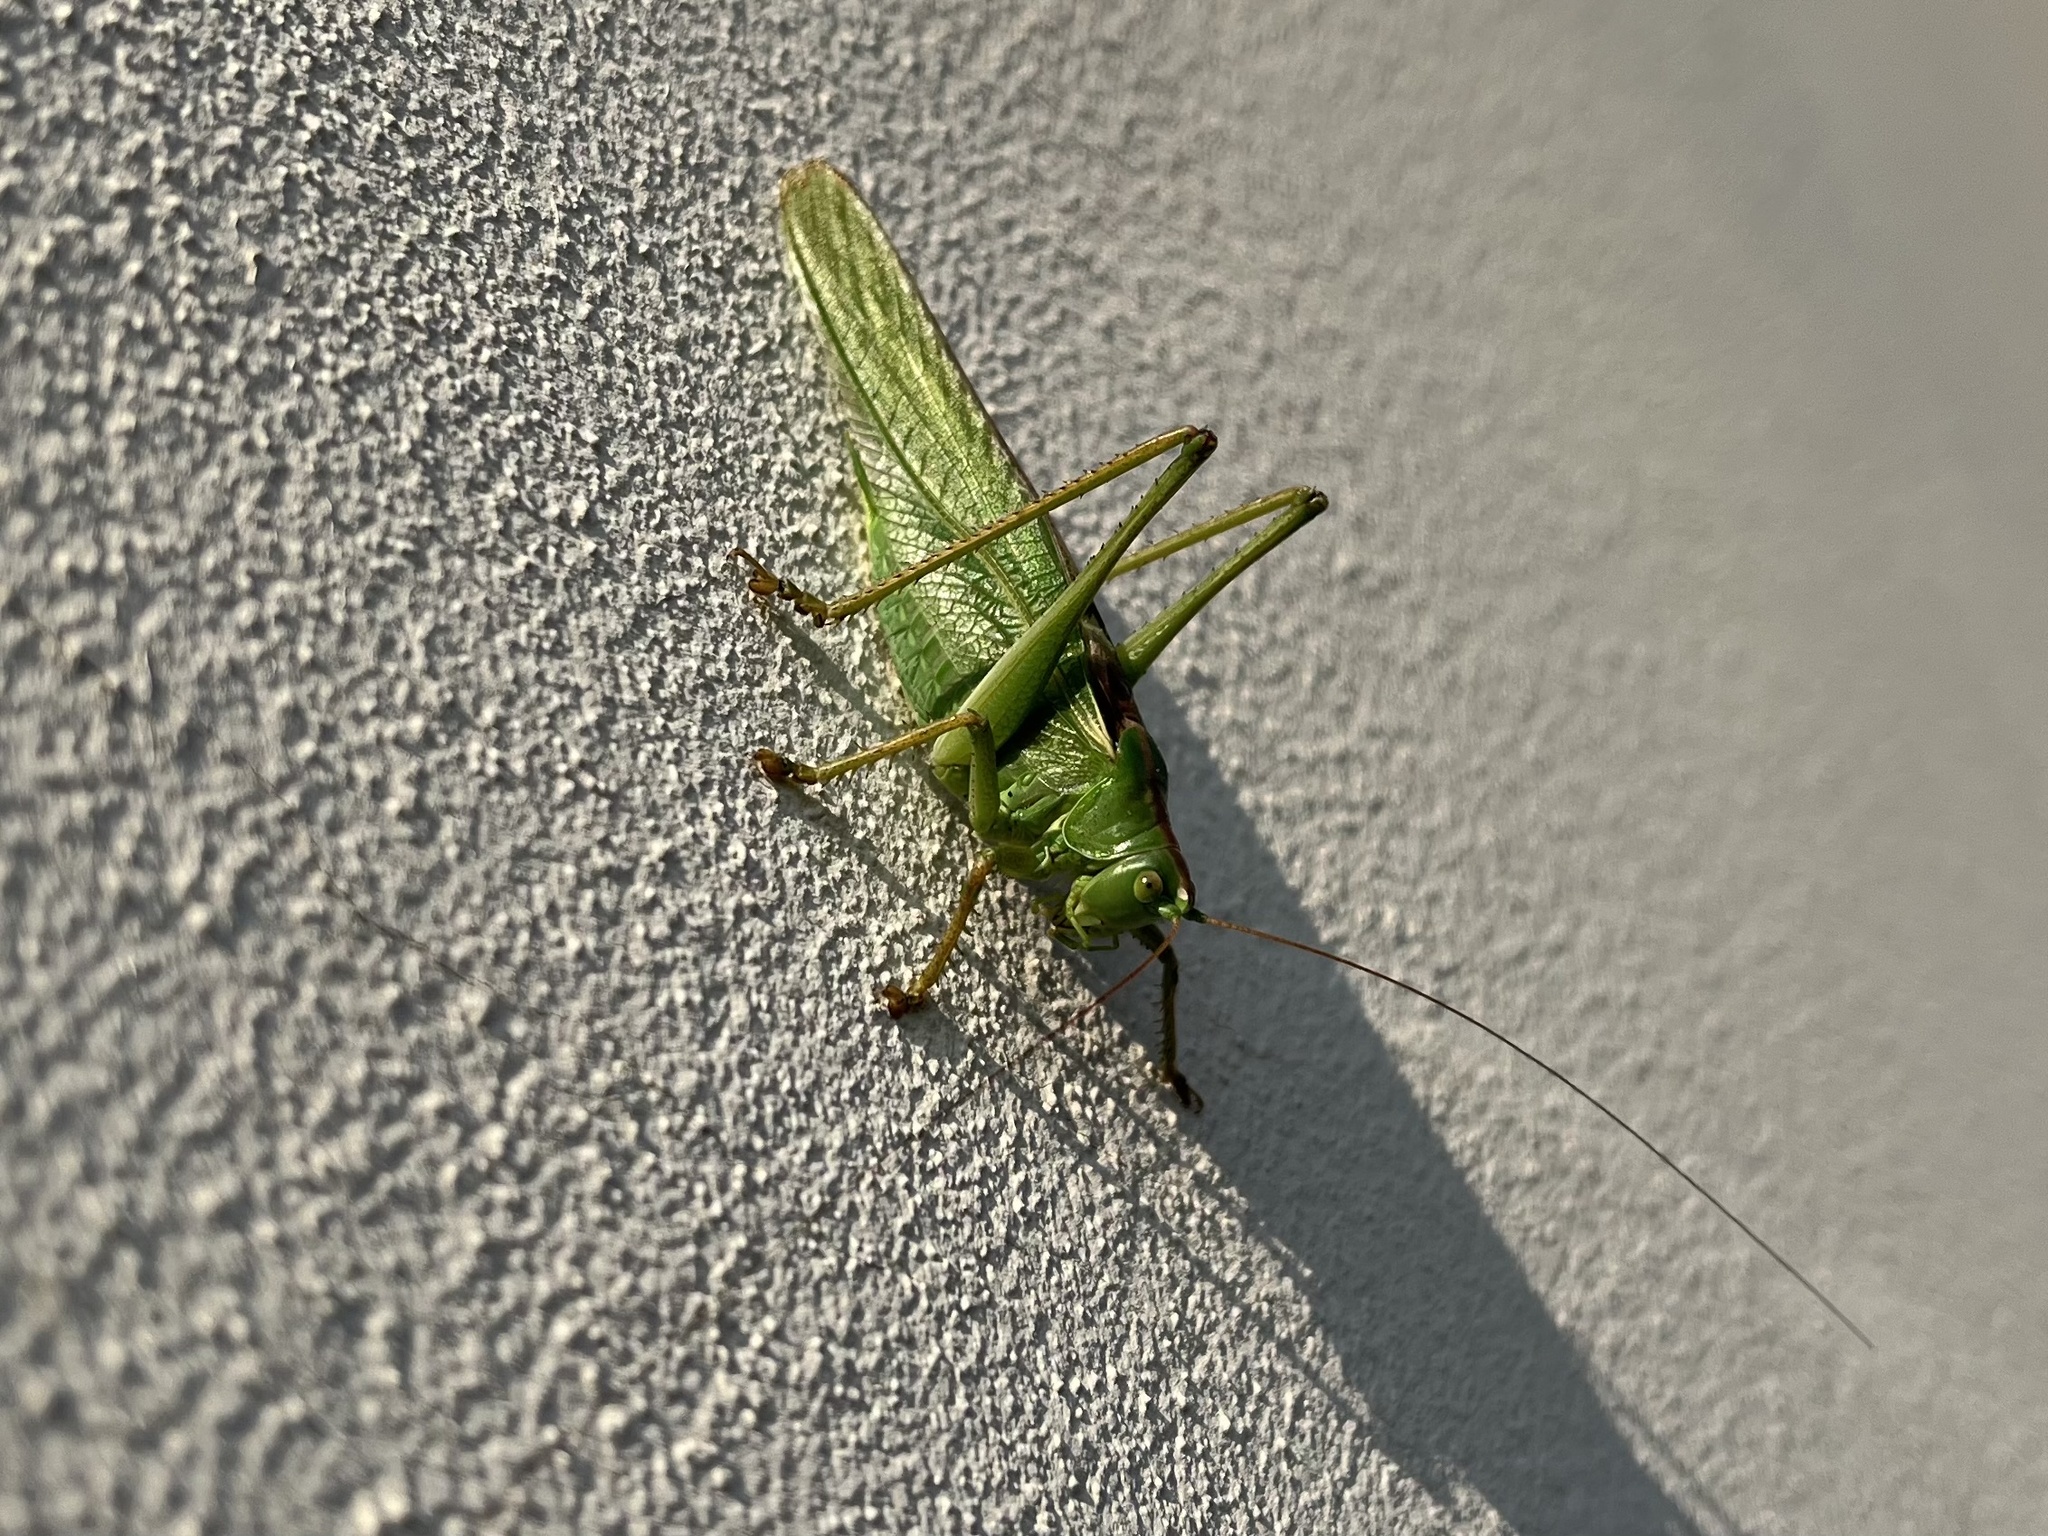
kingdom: Animalia
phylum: Arthropoda
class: Insecta
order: Orthoptera
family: Tettigoniidae
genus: Tettigonia
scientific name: Tettigonia viridissima
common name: Great green bush-cricket
